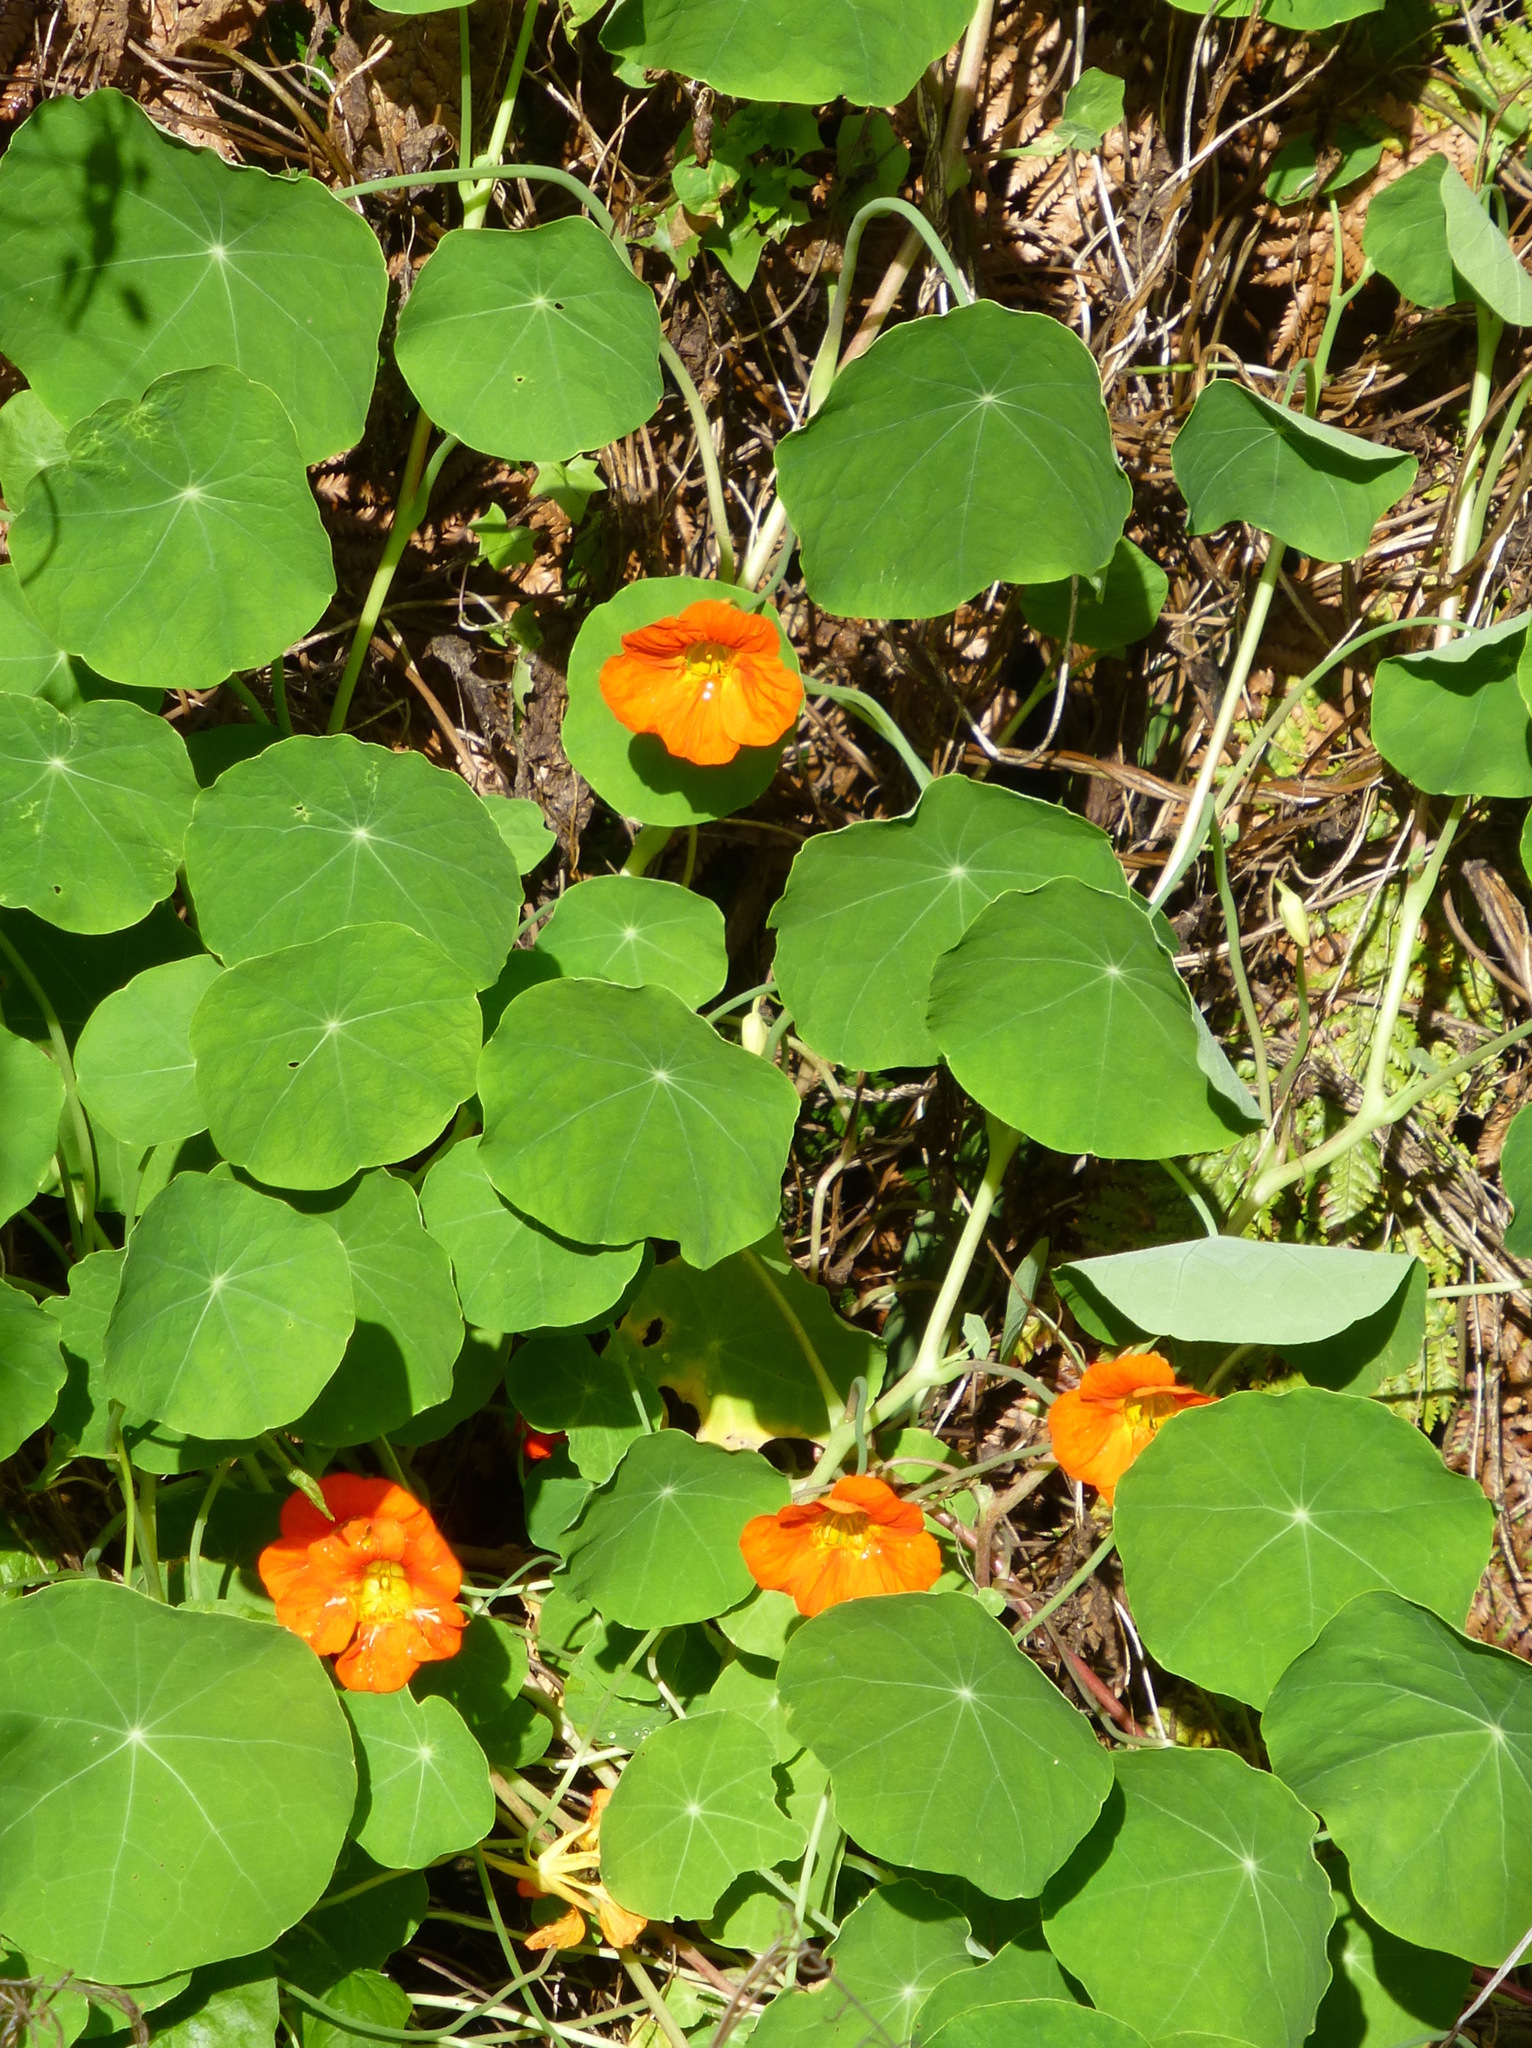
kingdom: Plantae
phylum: Tracheophyta
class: Magnoliopsida
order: Brassicales
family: Tropaeolaceae
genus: Tropaeolum
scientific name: Tropaeolum majus
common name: Nasturtium
